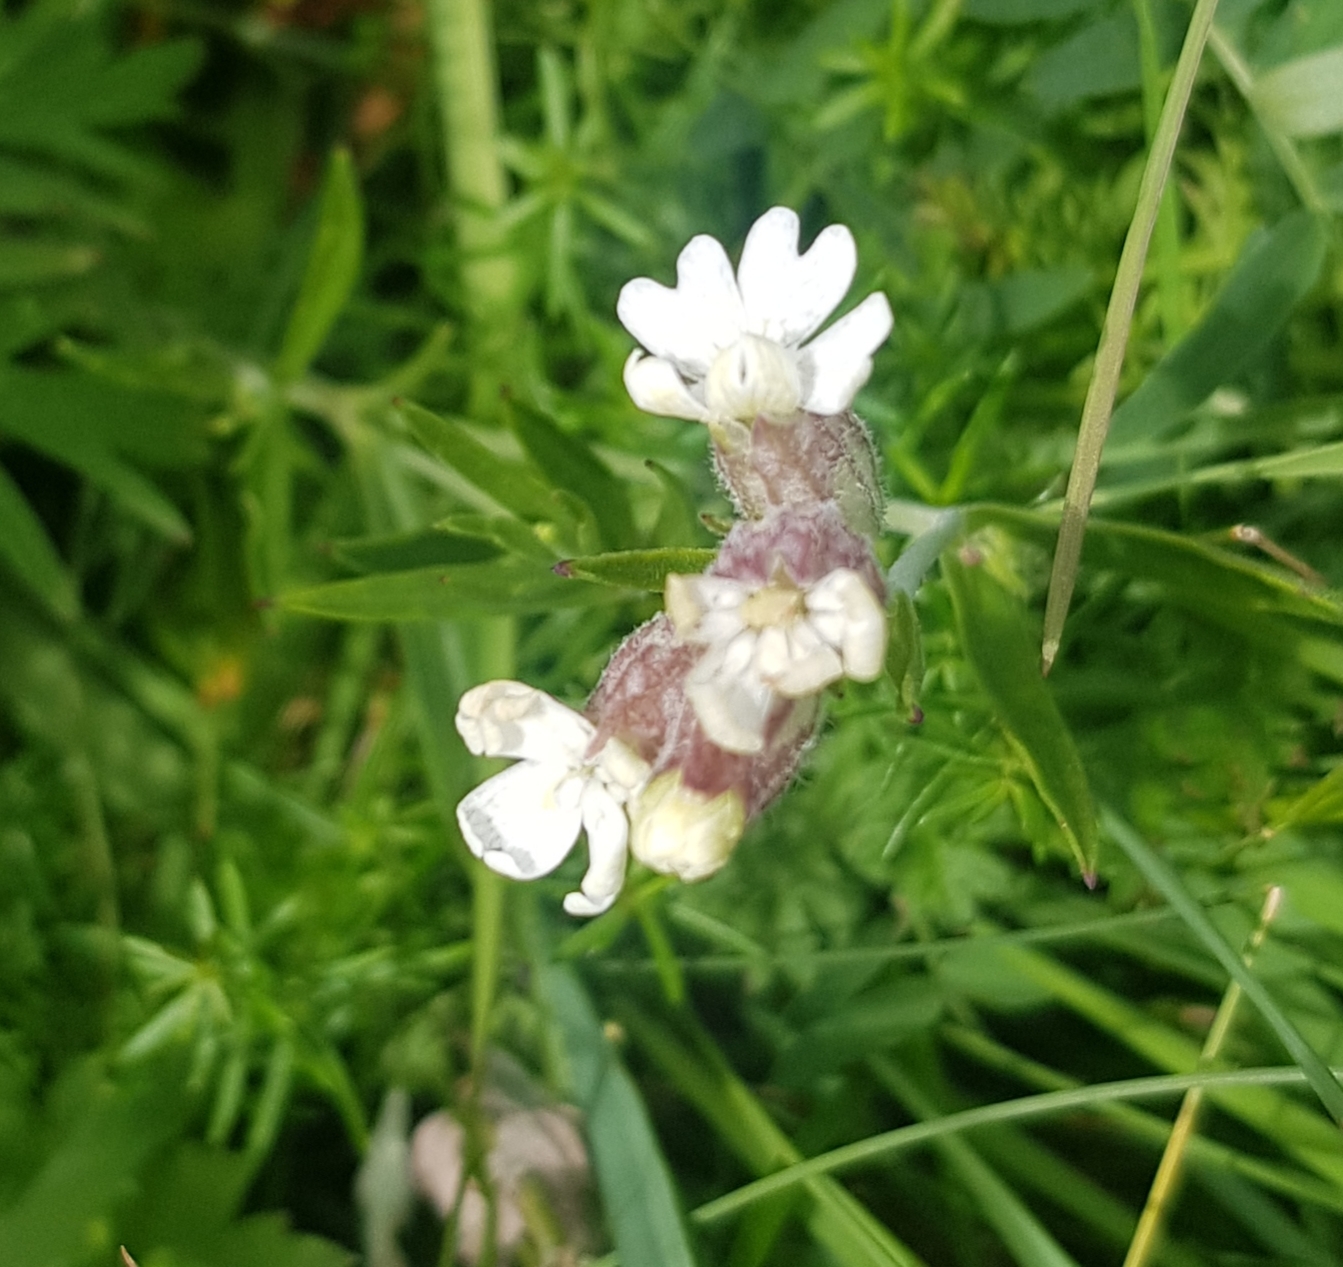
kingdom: Plantae
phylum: Tracheophyta
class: Magnoliopsida
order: Caryophyllales
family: Caryophyllaceae
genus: Silene
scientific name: Silene repens
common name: Pink campion
